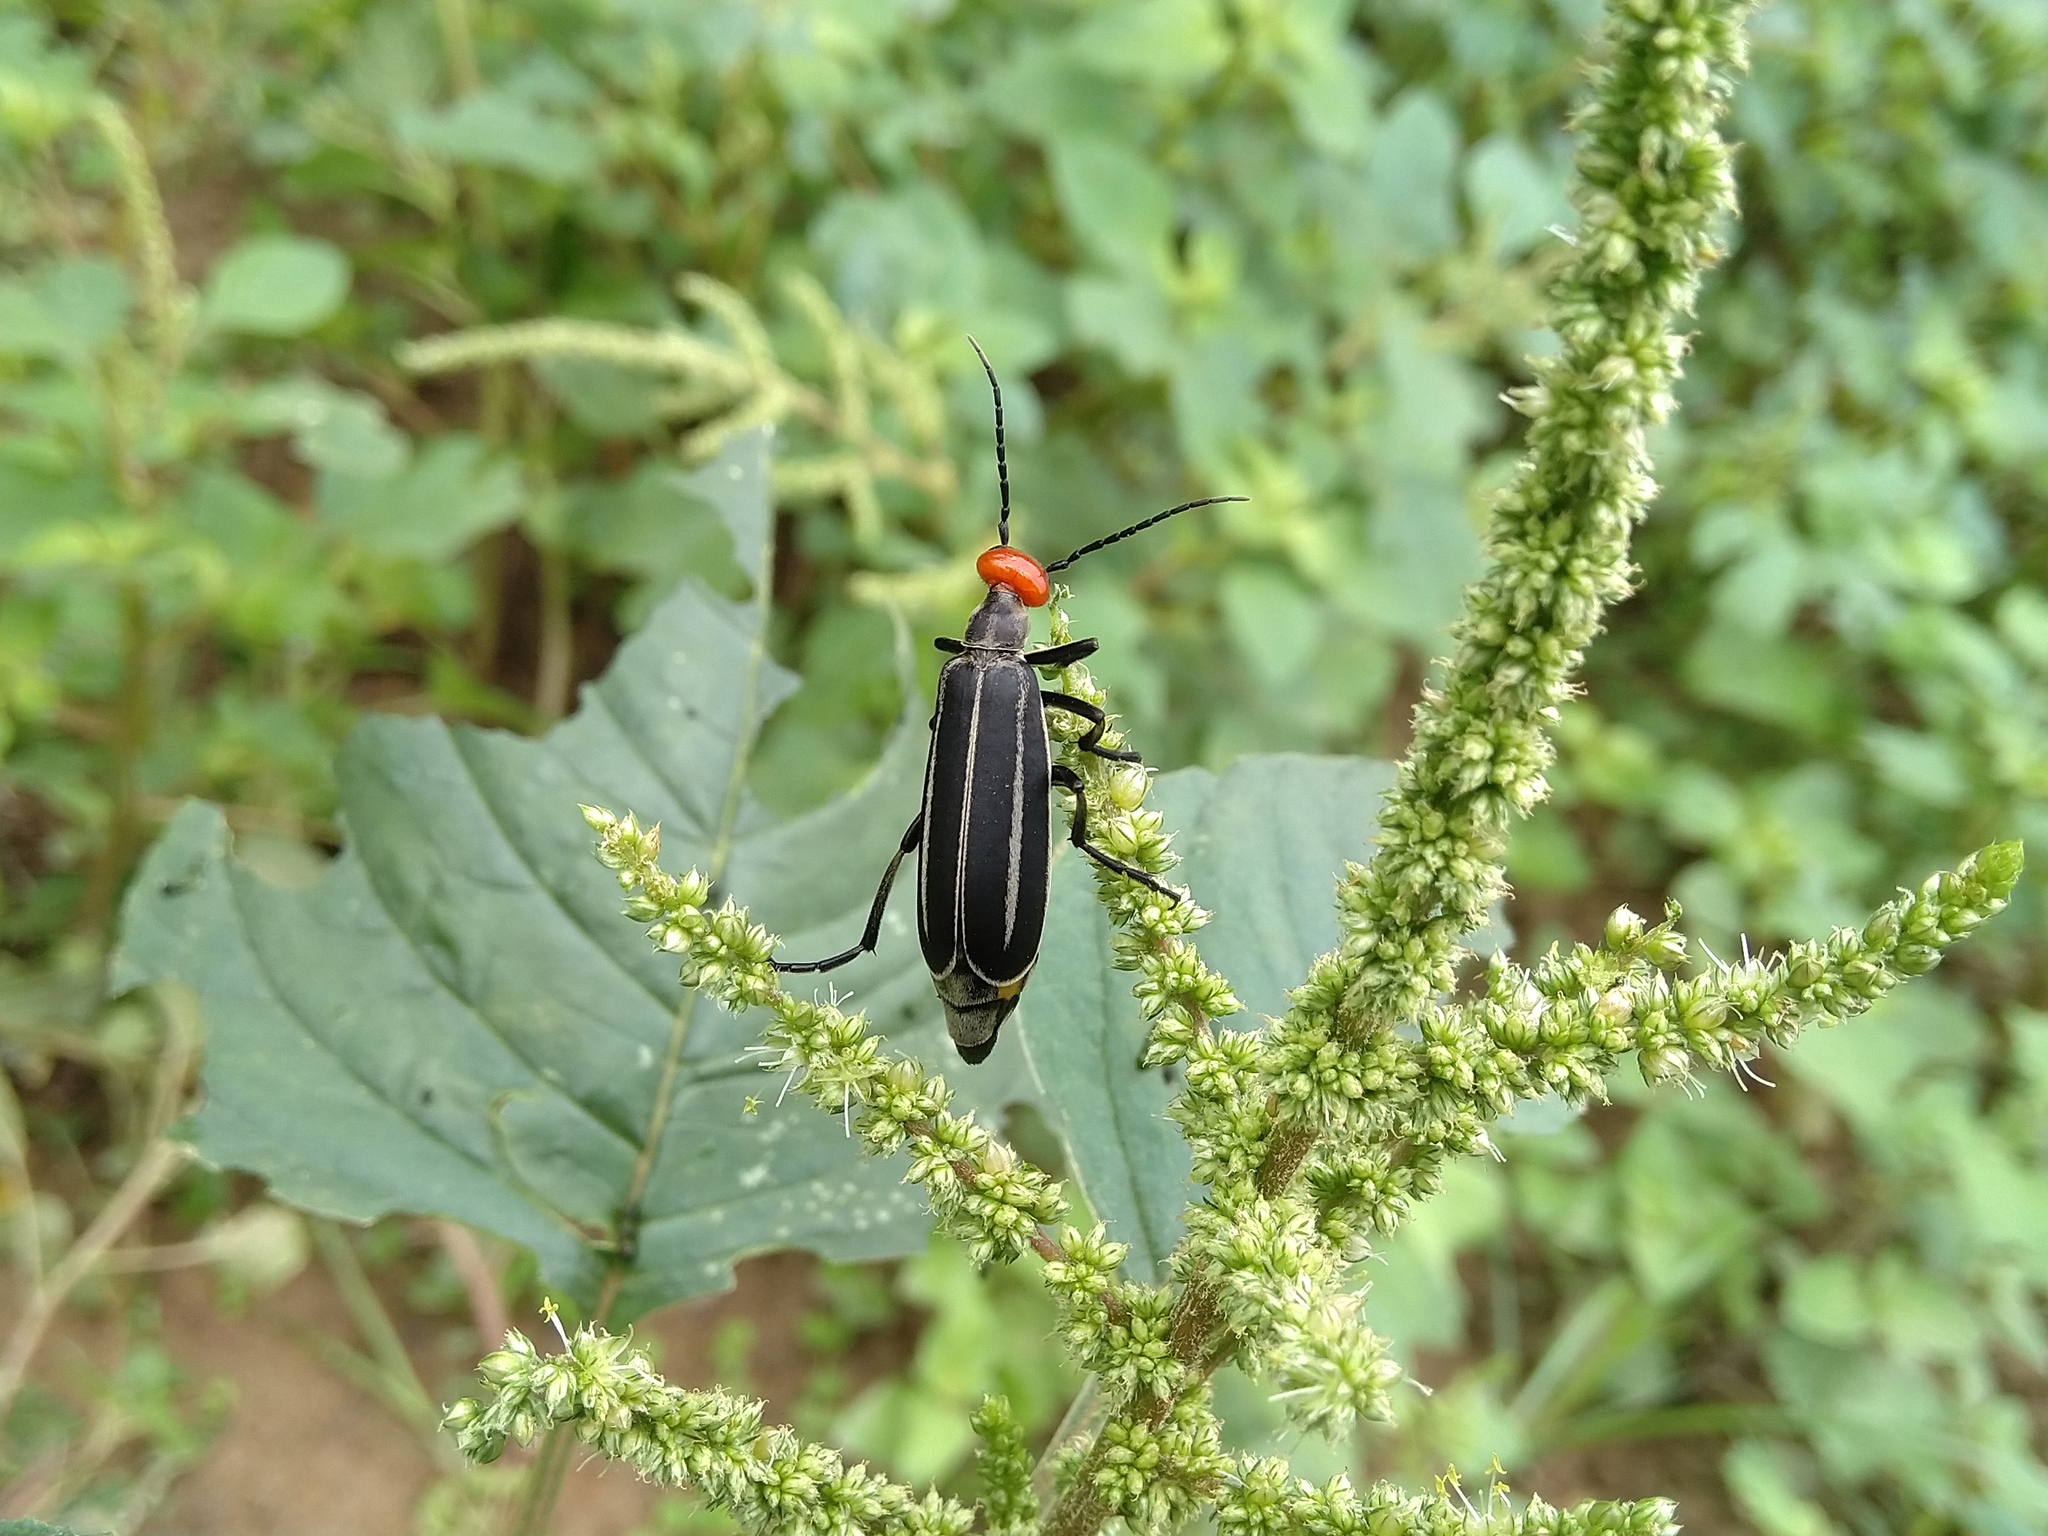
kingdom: Animalia
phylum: Arthropoda
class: Insecta
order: Coleoptera
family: Meloidae
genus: Epicauta
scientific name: Epicauta waterhousei
